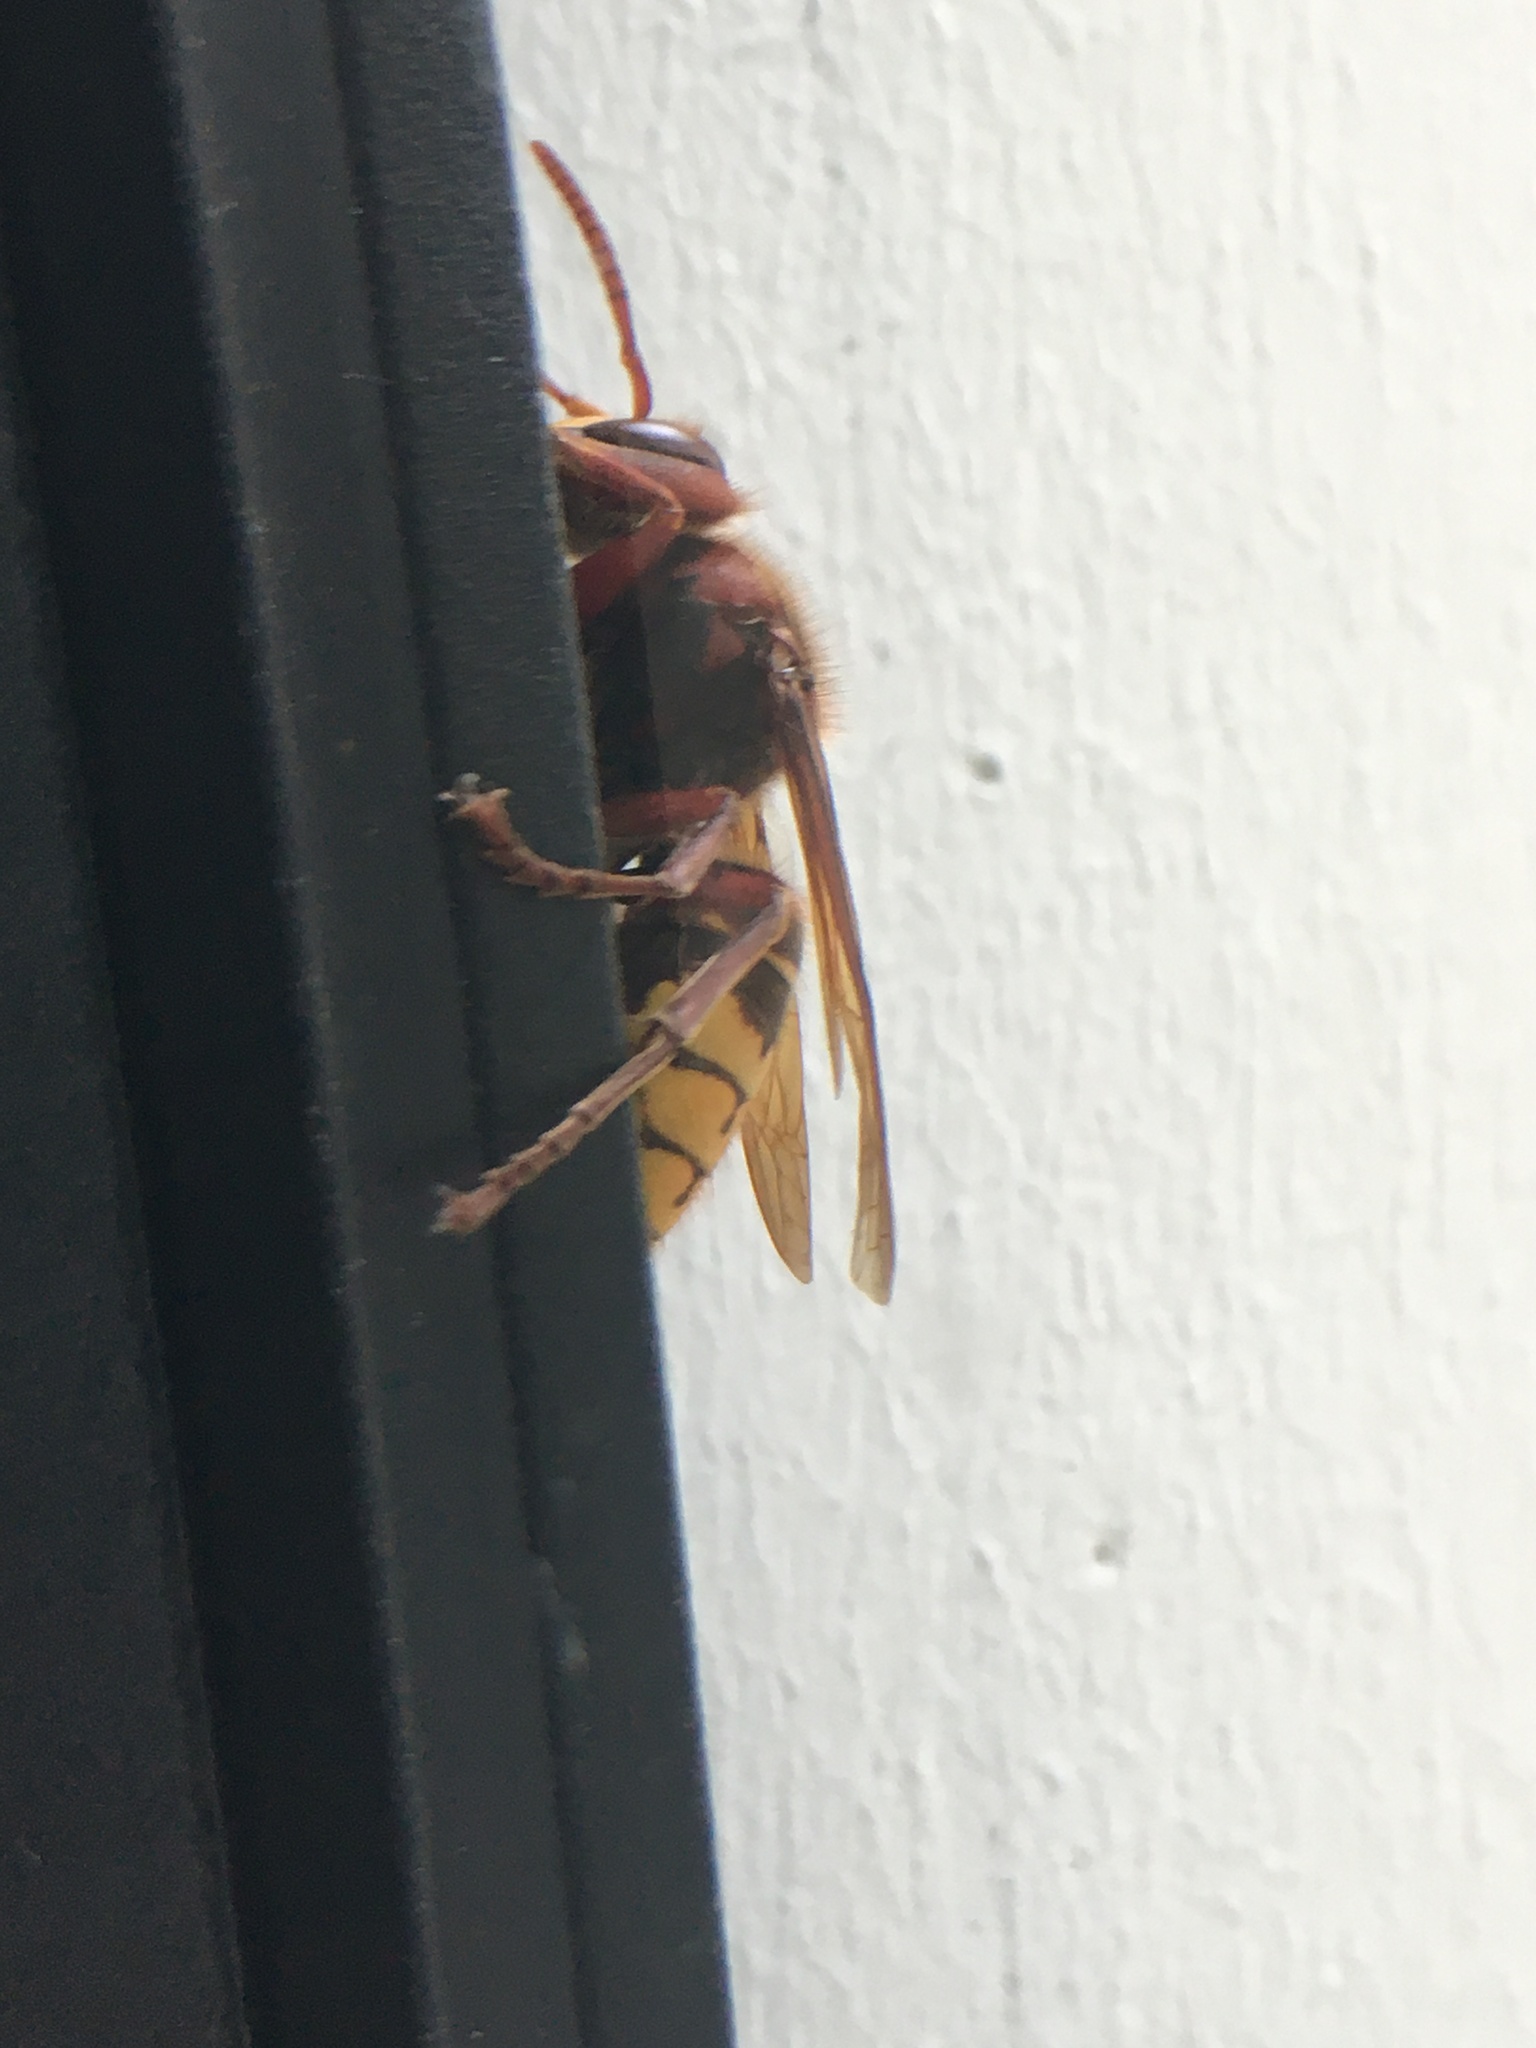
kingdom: Animalia
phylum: Arthropoda
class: Insecta
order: Hymenoptera
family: Vespidae
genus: Vespa
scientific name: Vespa crabro
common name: Hornet
